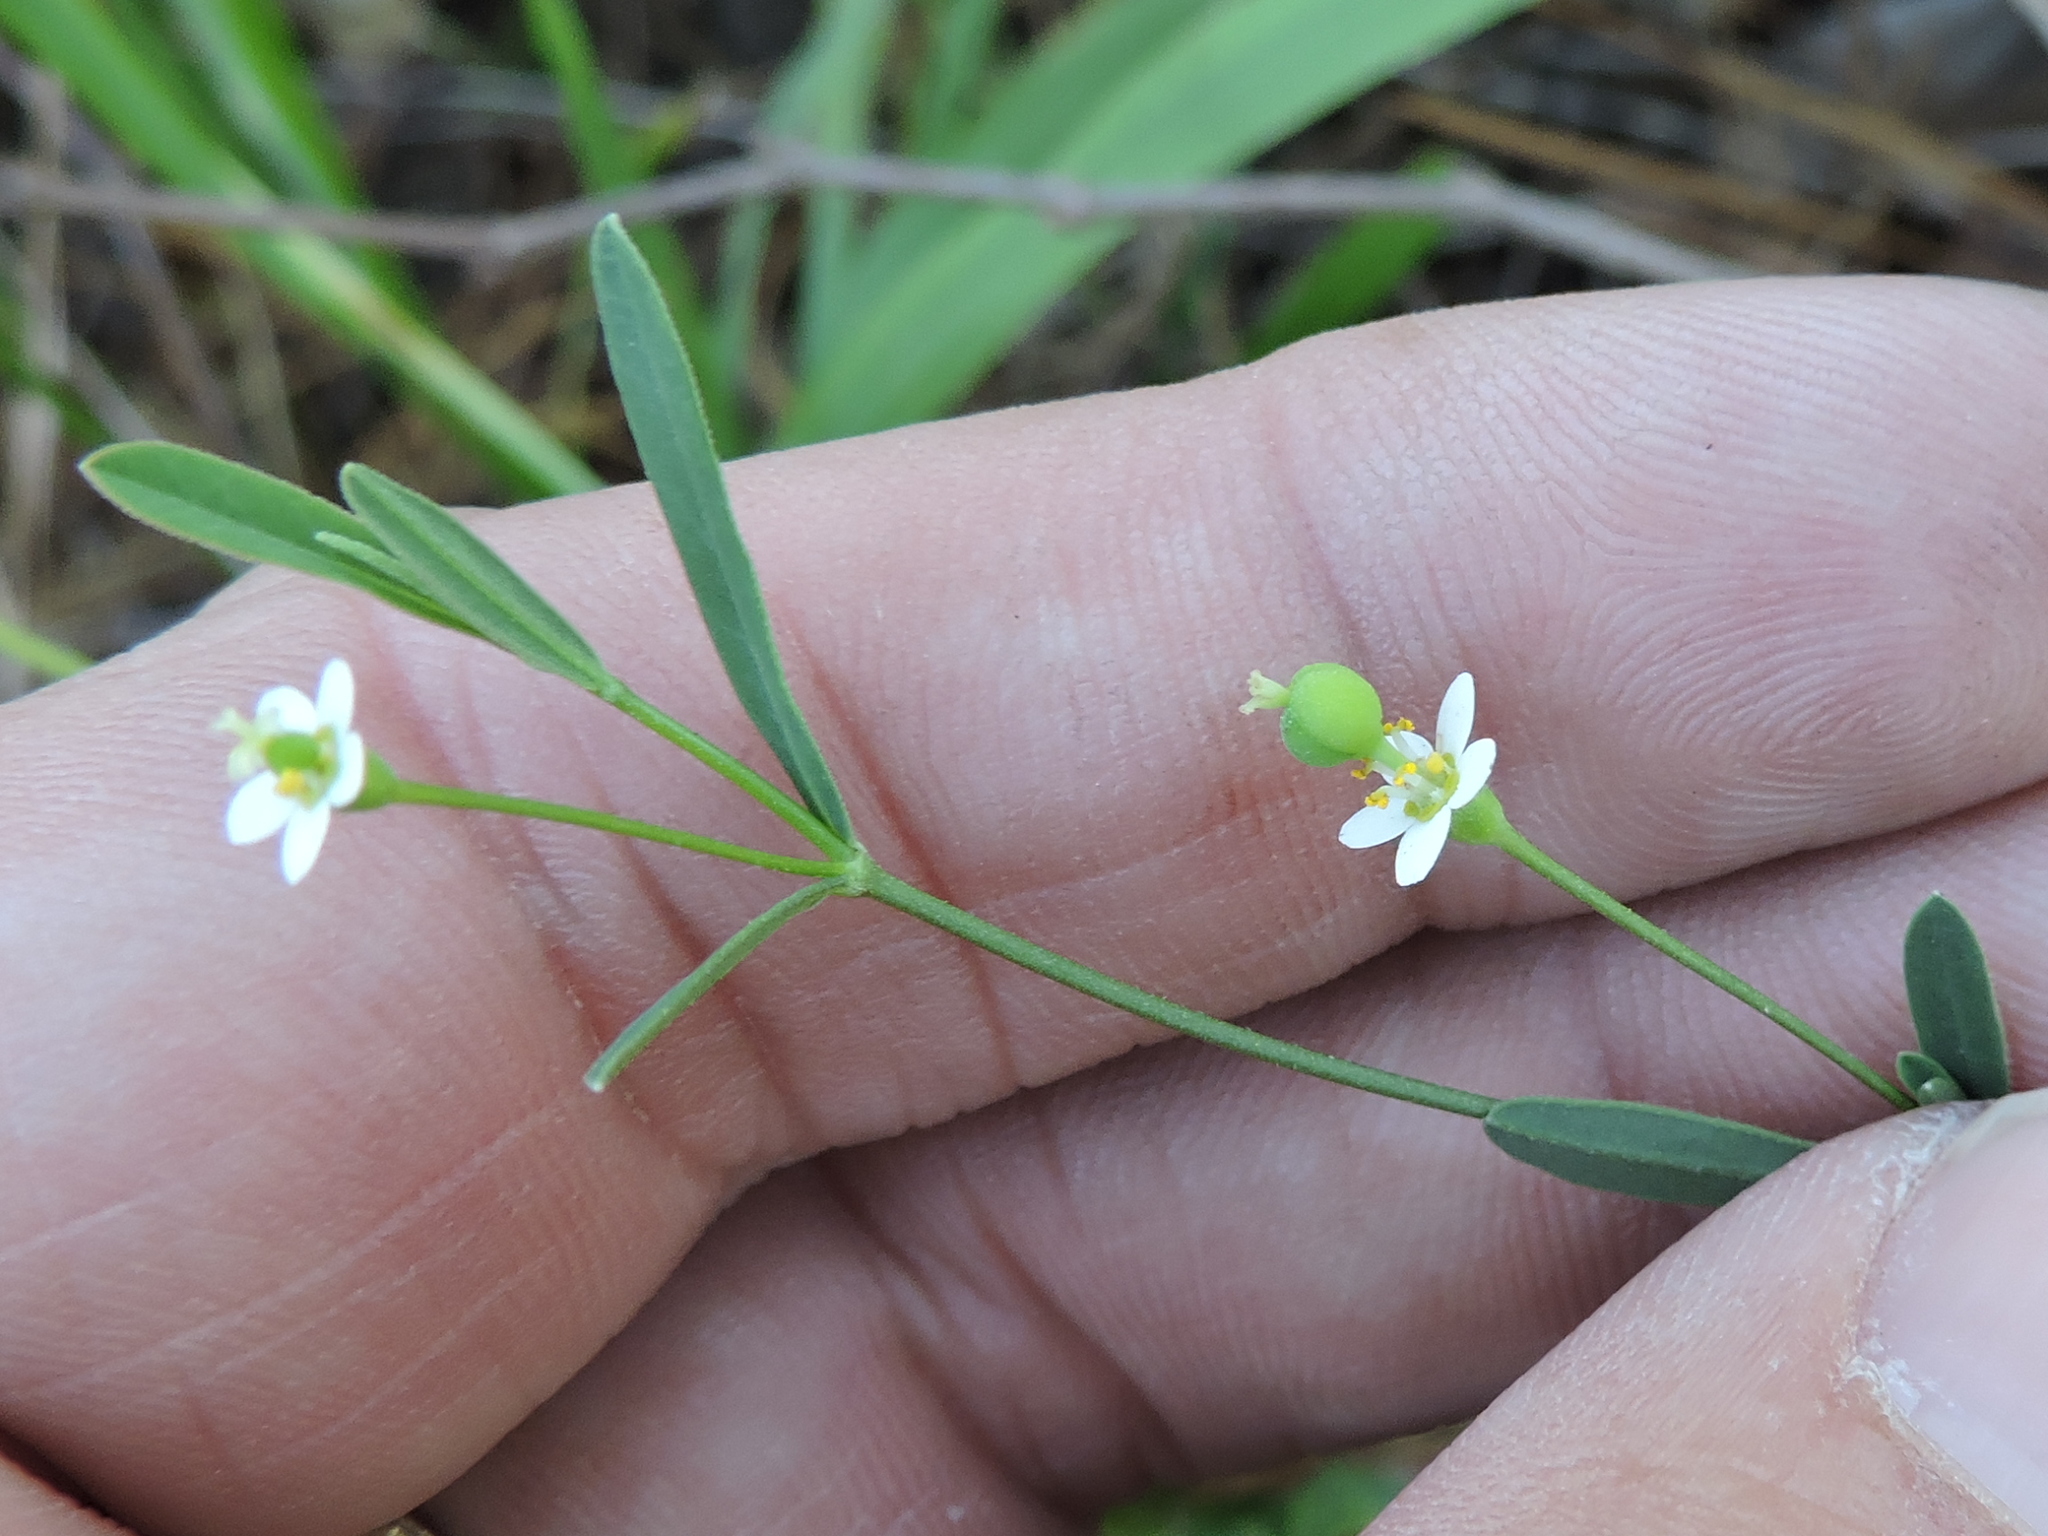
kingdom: Plantae
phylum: Tracheophyta
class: Magnoliopsida
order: Malpighiales
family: Euphorbiaceae
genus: Euphorbia
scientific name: Euphorbia corollata
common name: Flowering spurge
